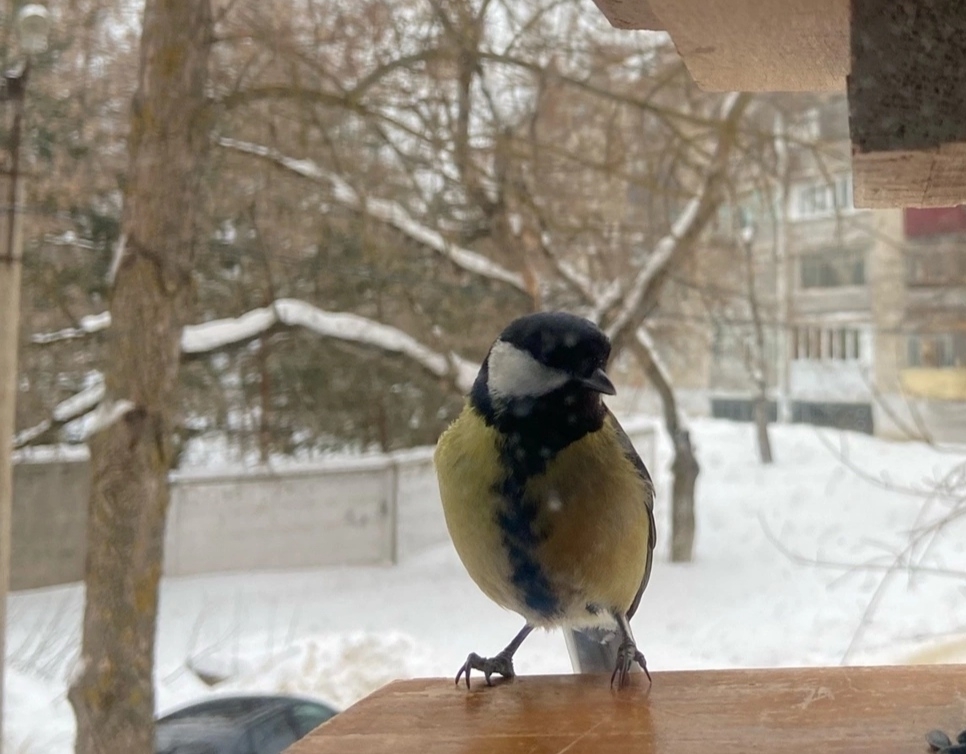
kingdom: Animalia
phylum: Chordata
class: Aves
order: Passeriformes
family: Paridae
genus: Parus
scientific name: Parus major
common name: Great tit
